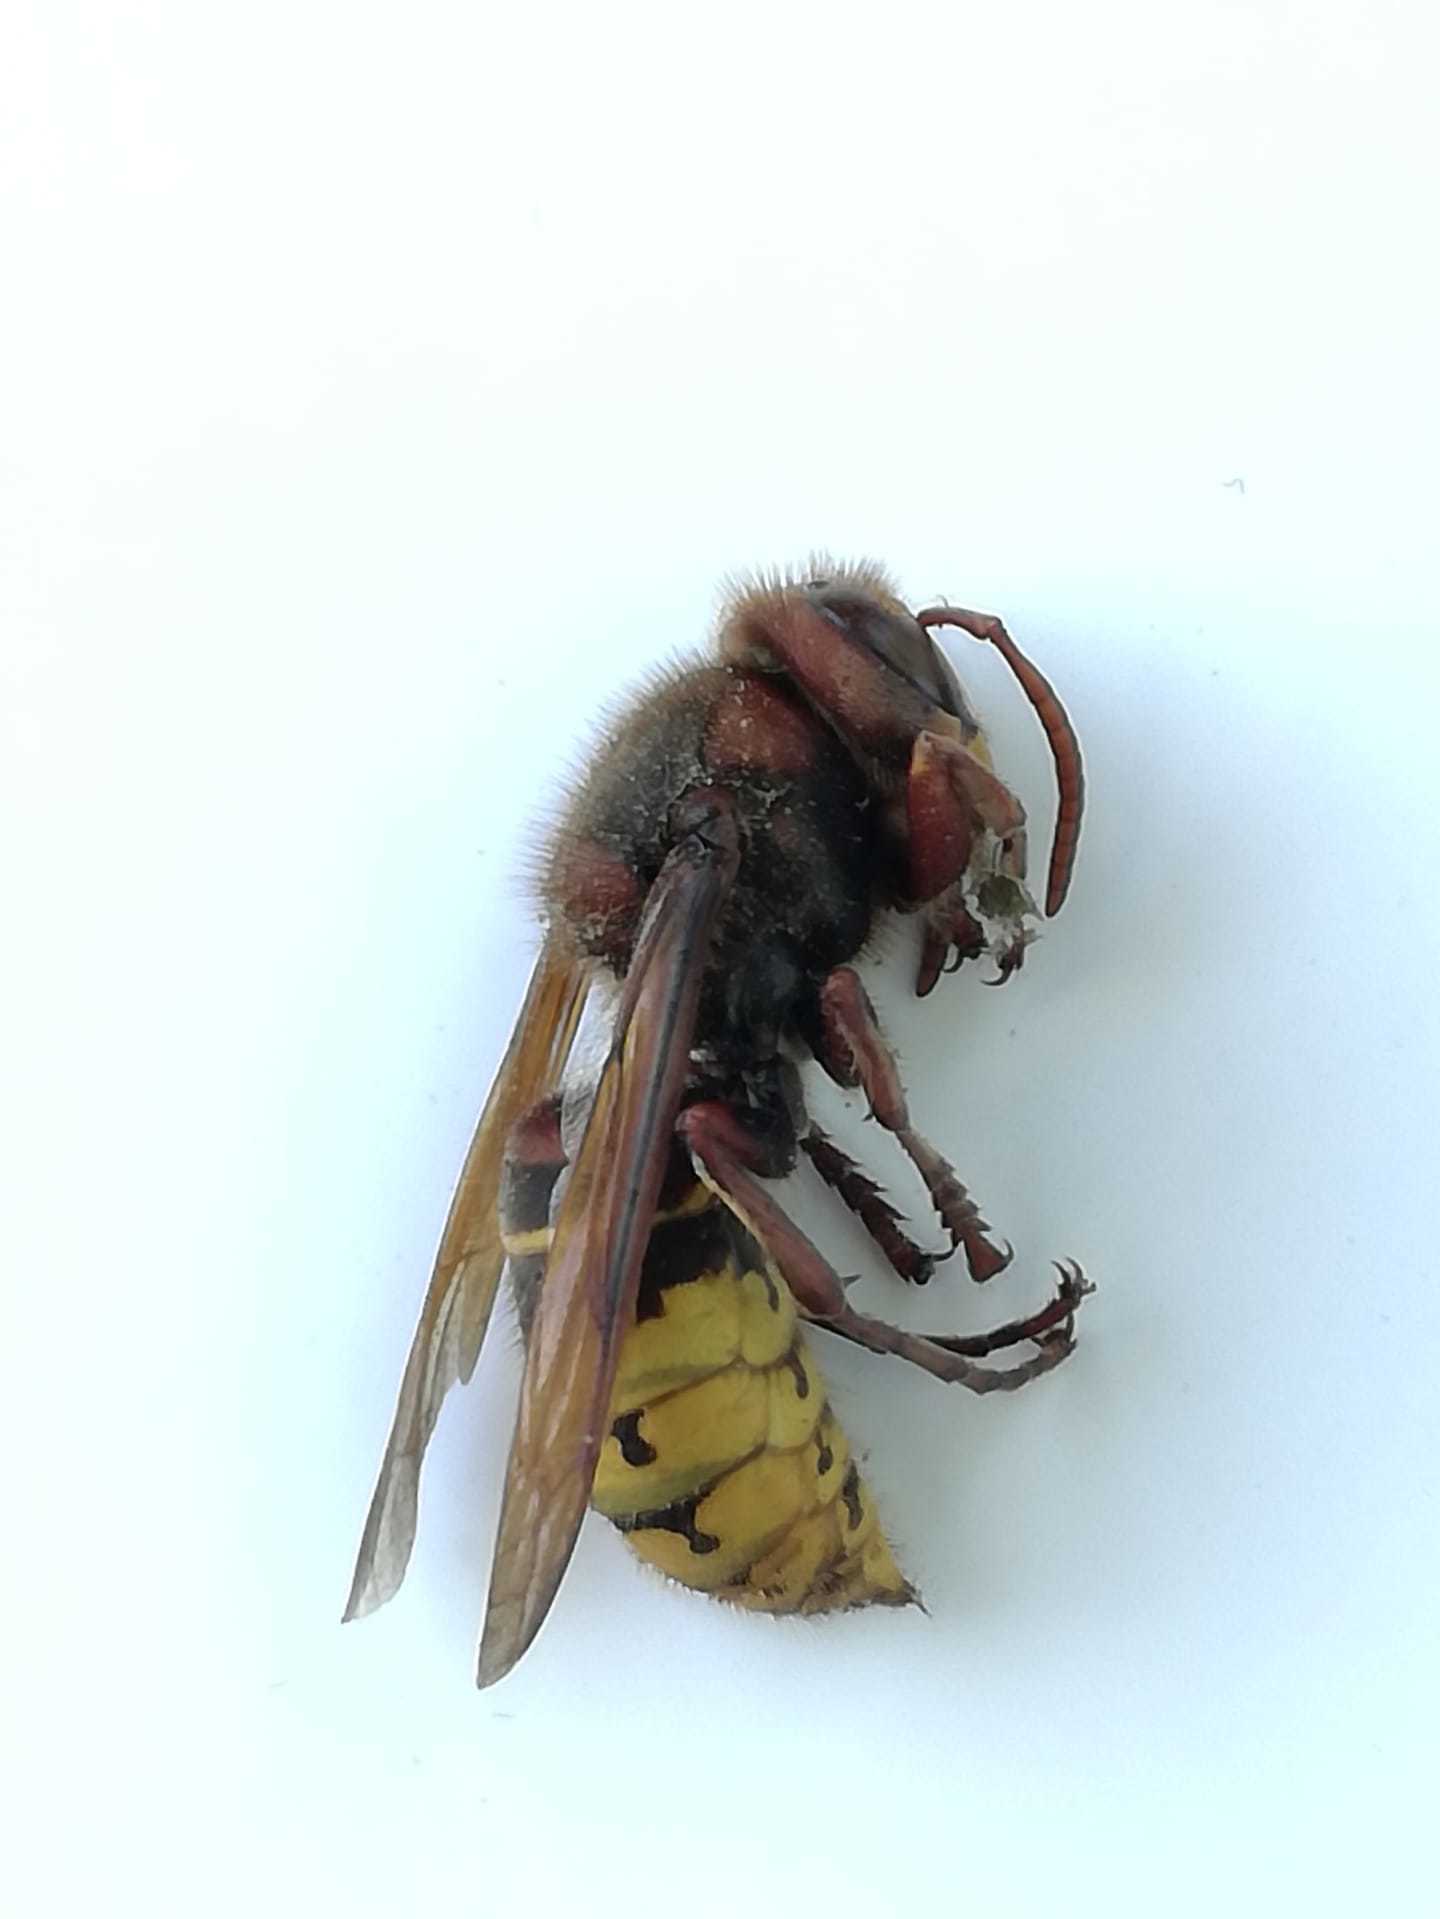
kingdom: Animalia
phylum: Arthropoda
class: Insecta
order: Hymenoptera
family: Vespidae
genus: Vespa
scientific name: Vespa crabro
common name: Hornet
